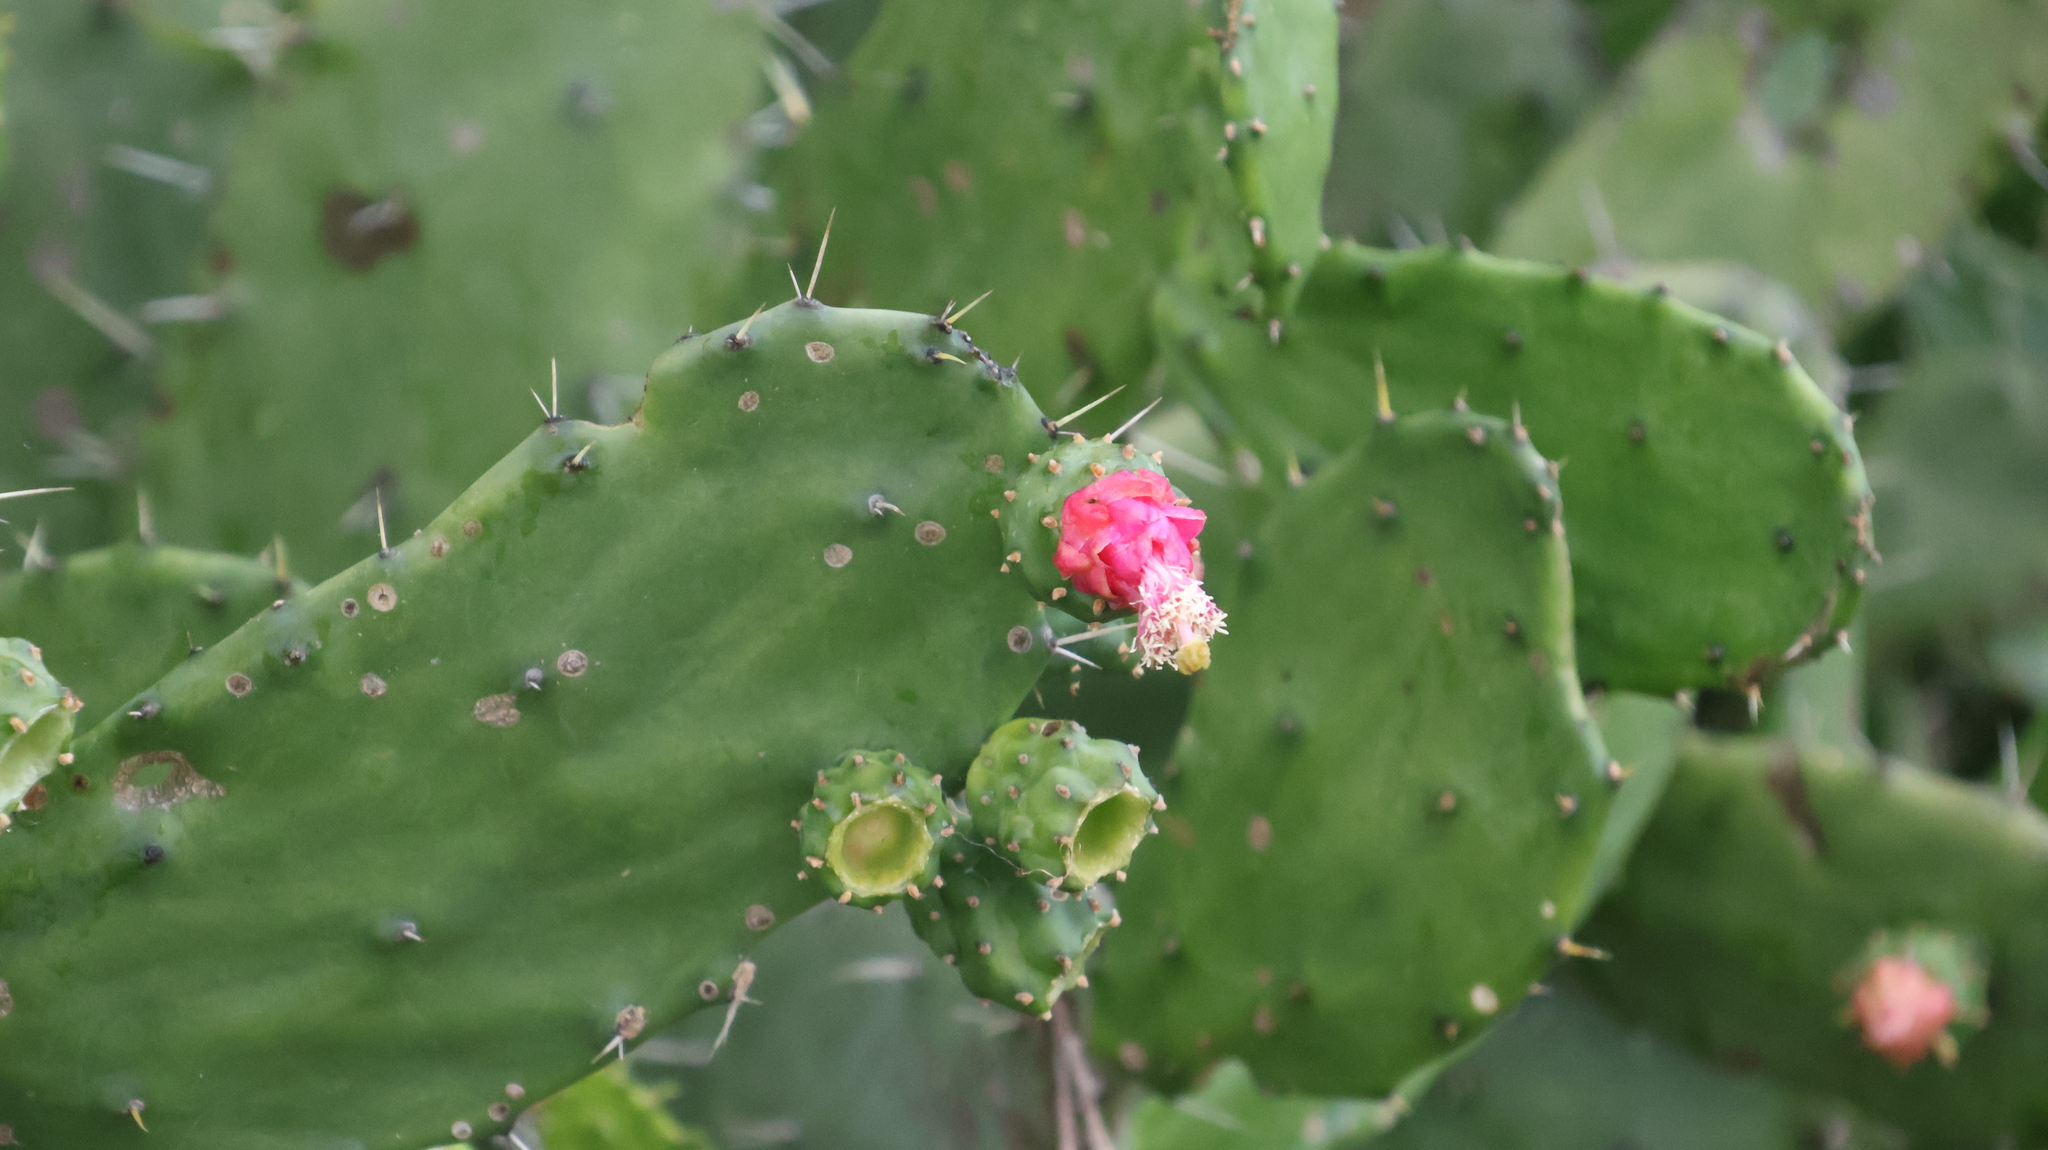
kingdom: Plantae
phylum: Tracheophyta
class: Magnoliopsida
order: Caryophyllales
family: Cactaceae
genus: Opuntia
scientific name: Opuntia auberi
